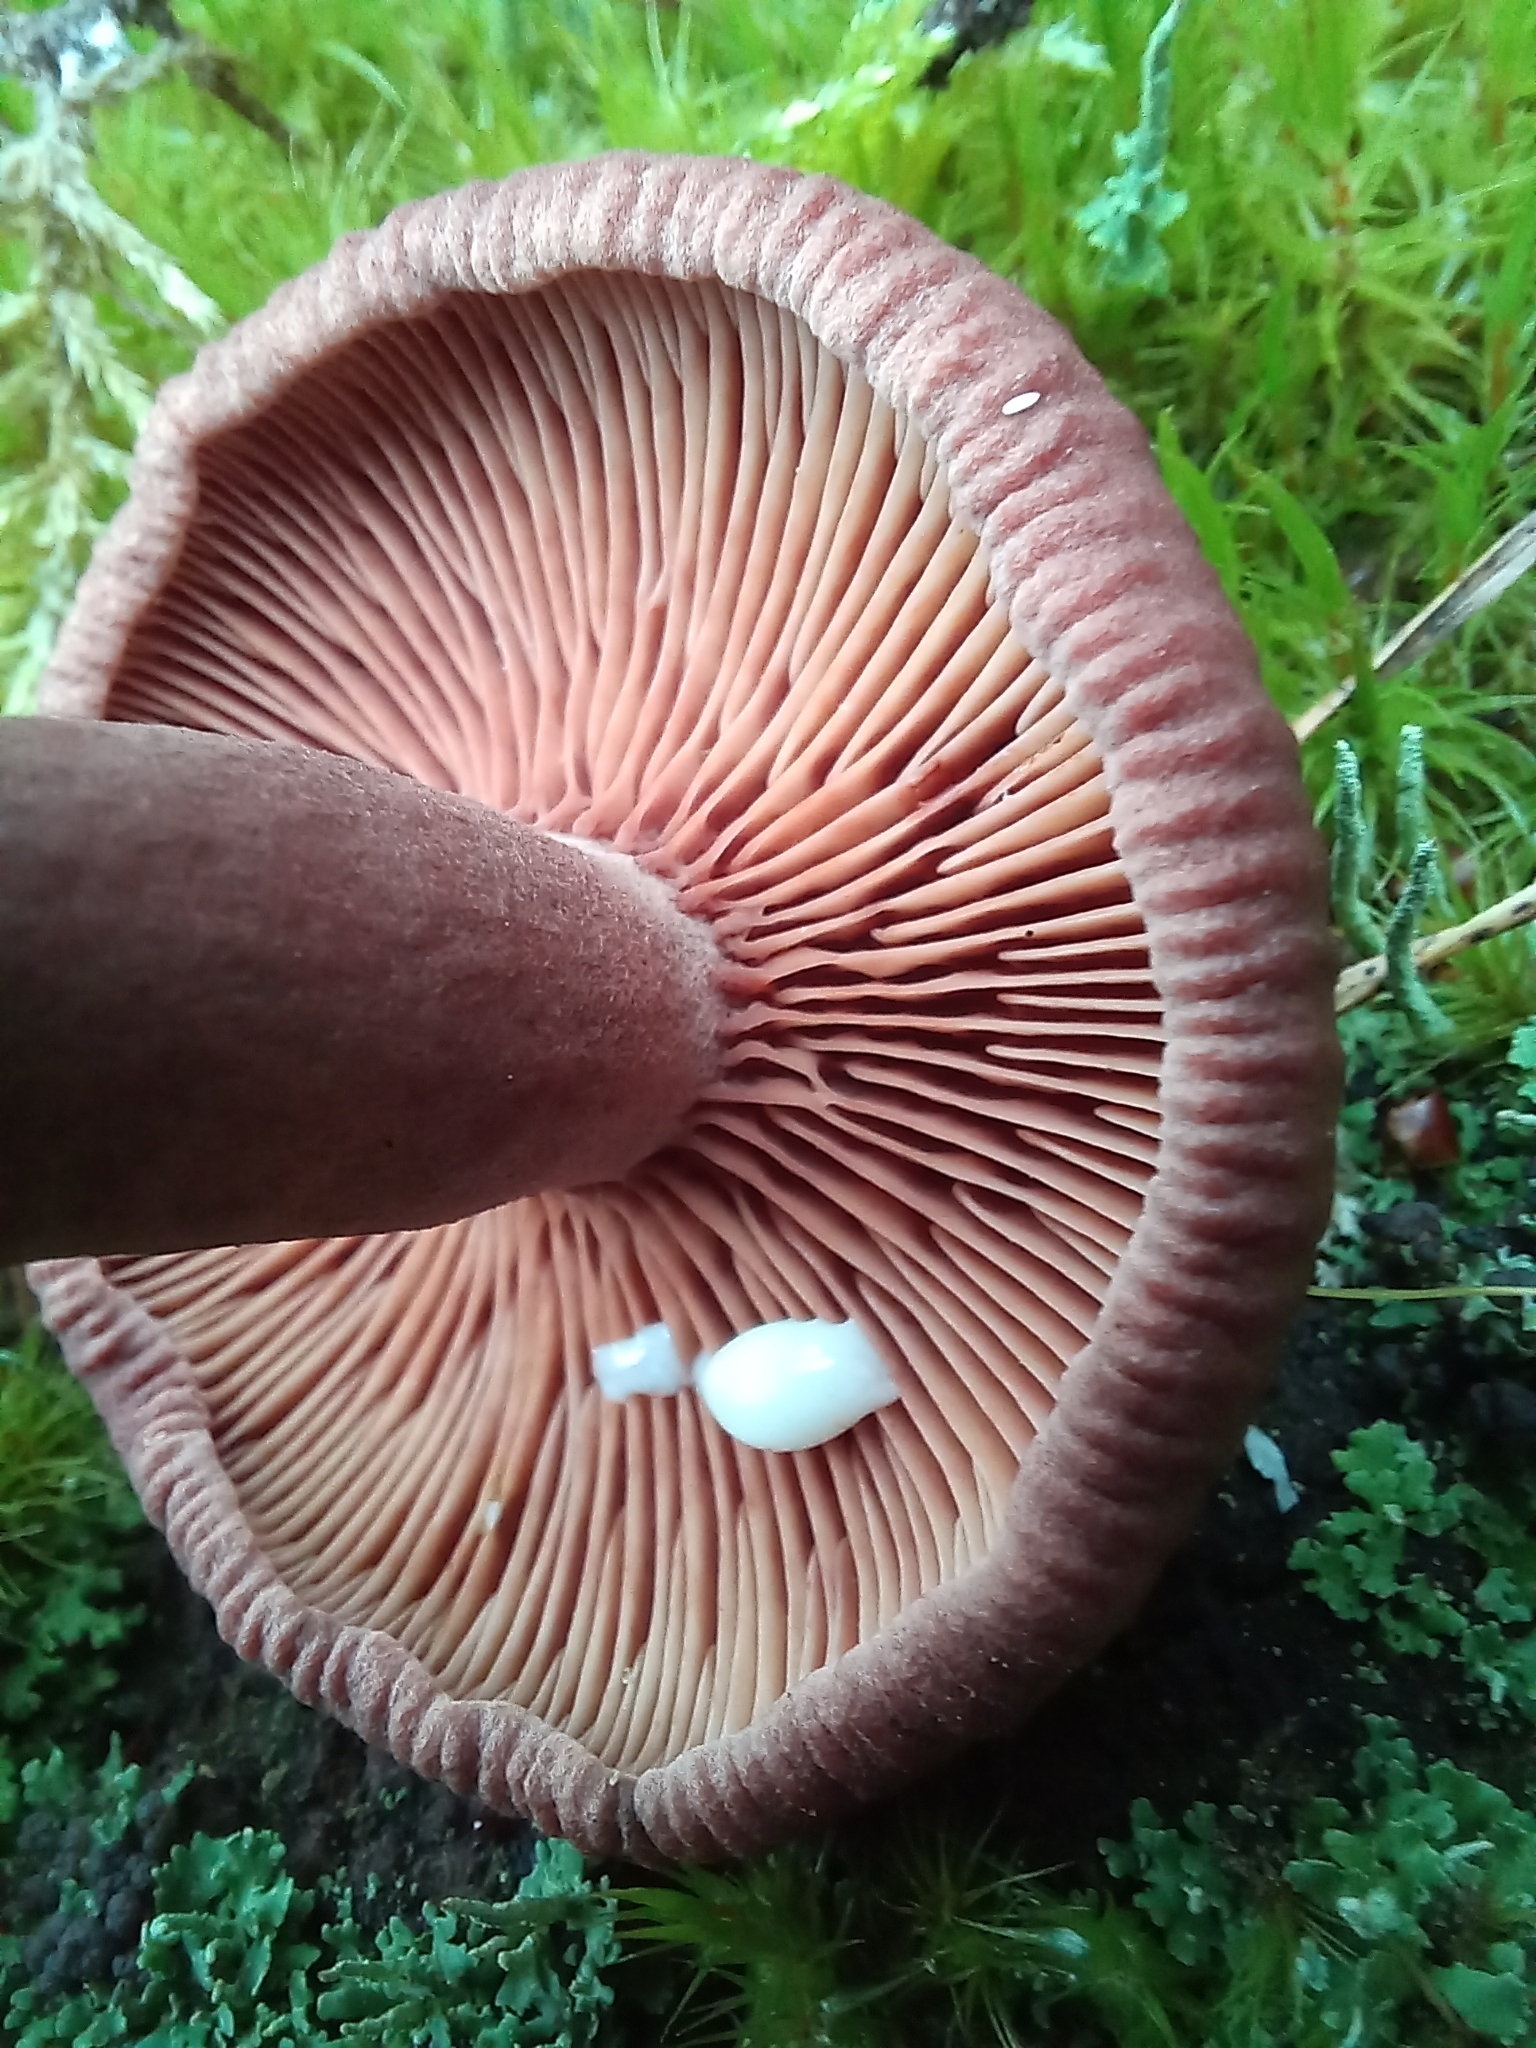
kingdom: Fungi
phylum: Basidiomycota
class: Agaricomycetes
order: Russulales
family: Russulaceae
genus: Lactarius
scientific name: Lactarius camphoratus
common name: Curry milkcap
